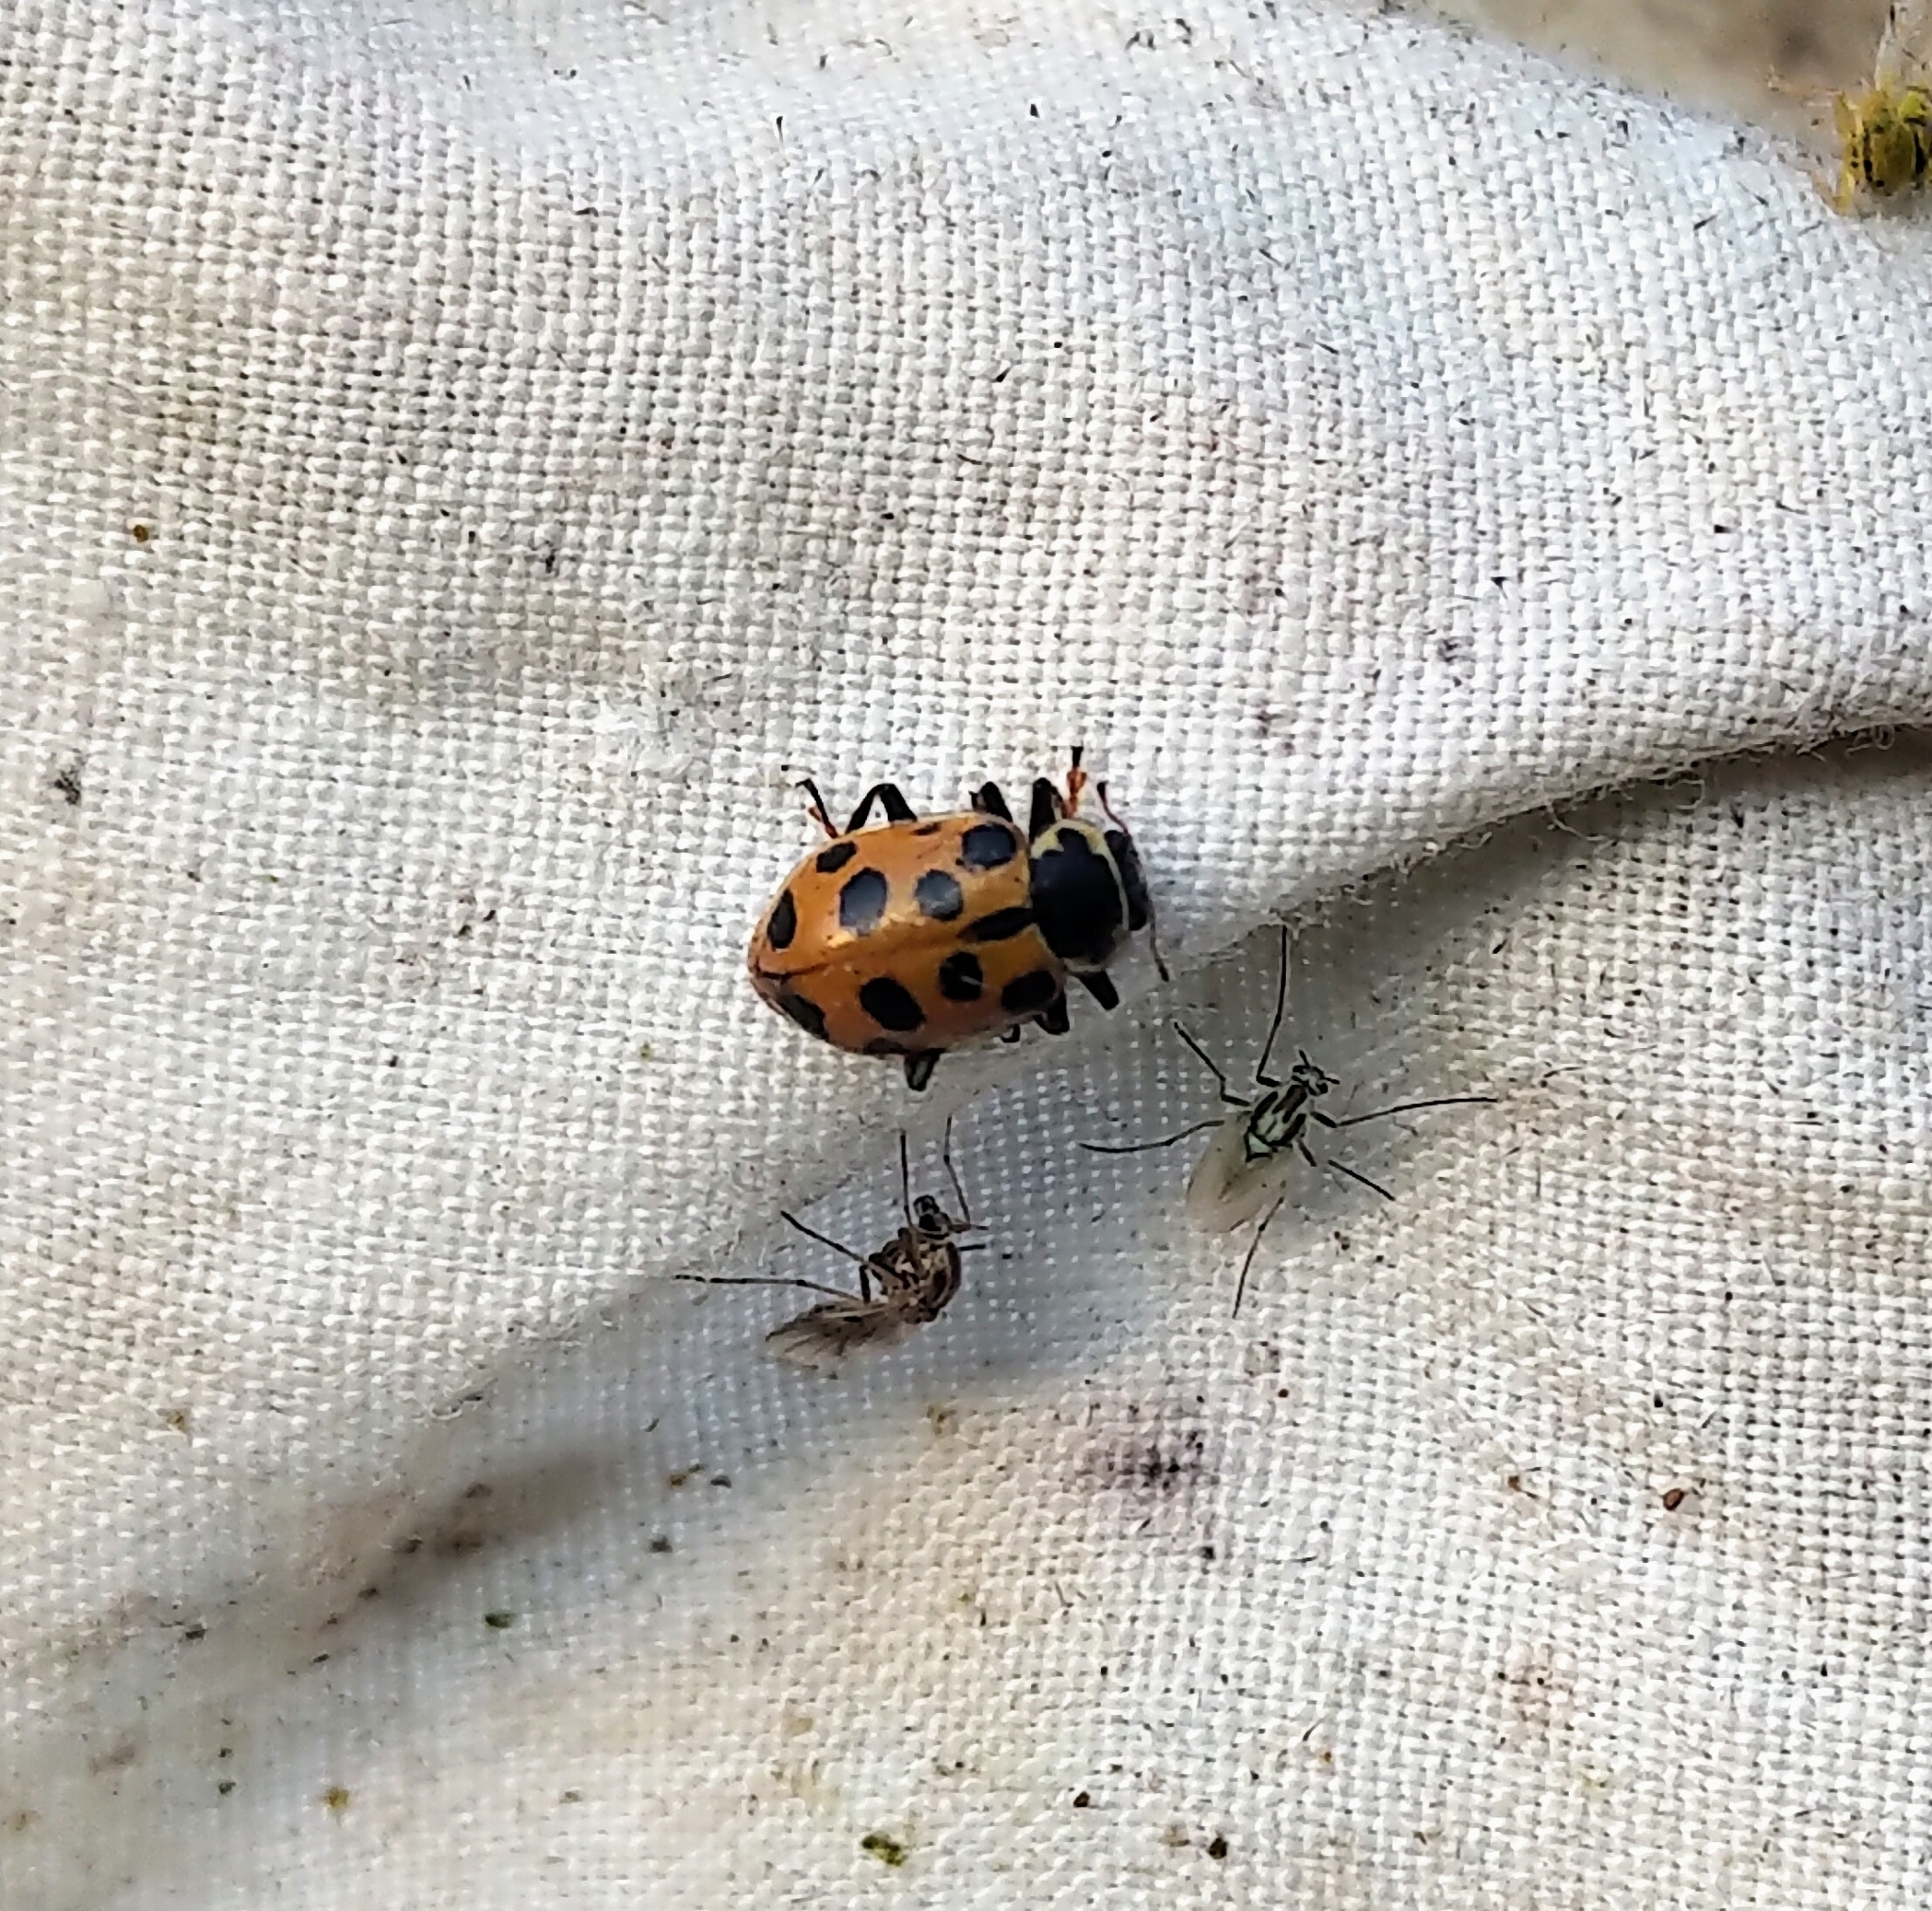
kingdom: Animalia
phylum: Arthropoda
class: Insecta
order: Coleoptera
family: Coccinellidae
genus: Hippodamia
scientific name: Hippodamia tredecimpunctata
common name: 13-spot ladybird
